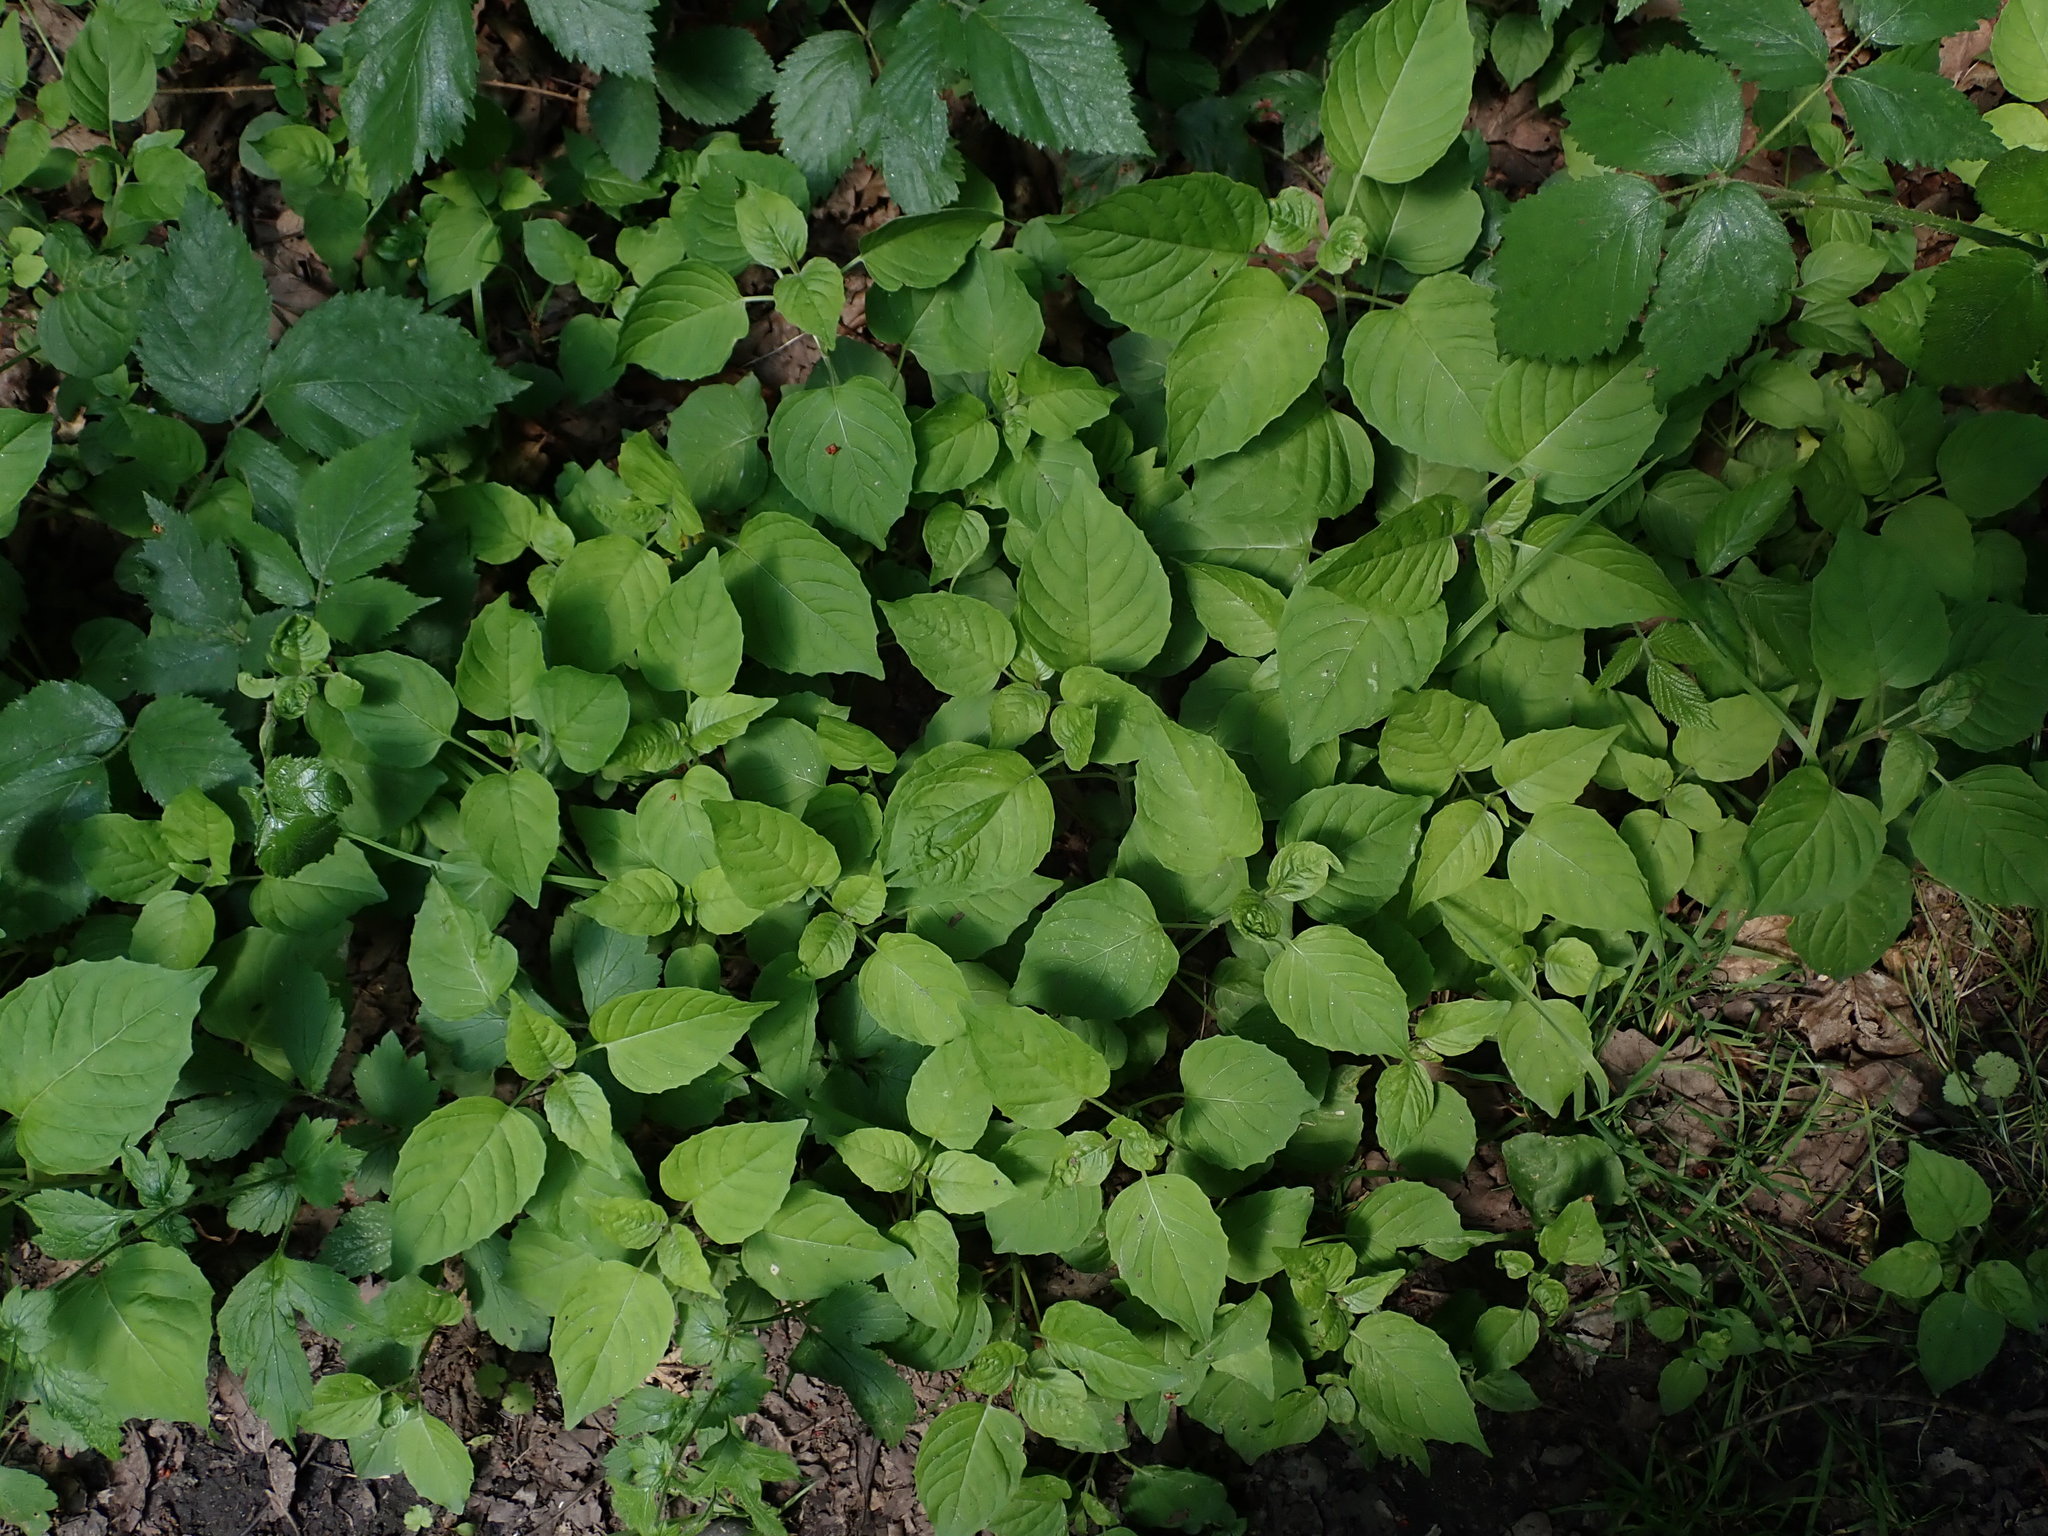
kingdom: Plantae
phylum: Tracheophyta
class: Magnoliopsida
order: Myrtales
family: Onagraceae
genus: Circaea
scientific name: Circaea lutetiana
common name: Enchanter's-nightshade
